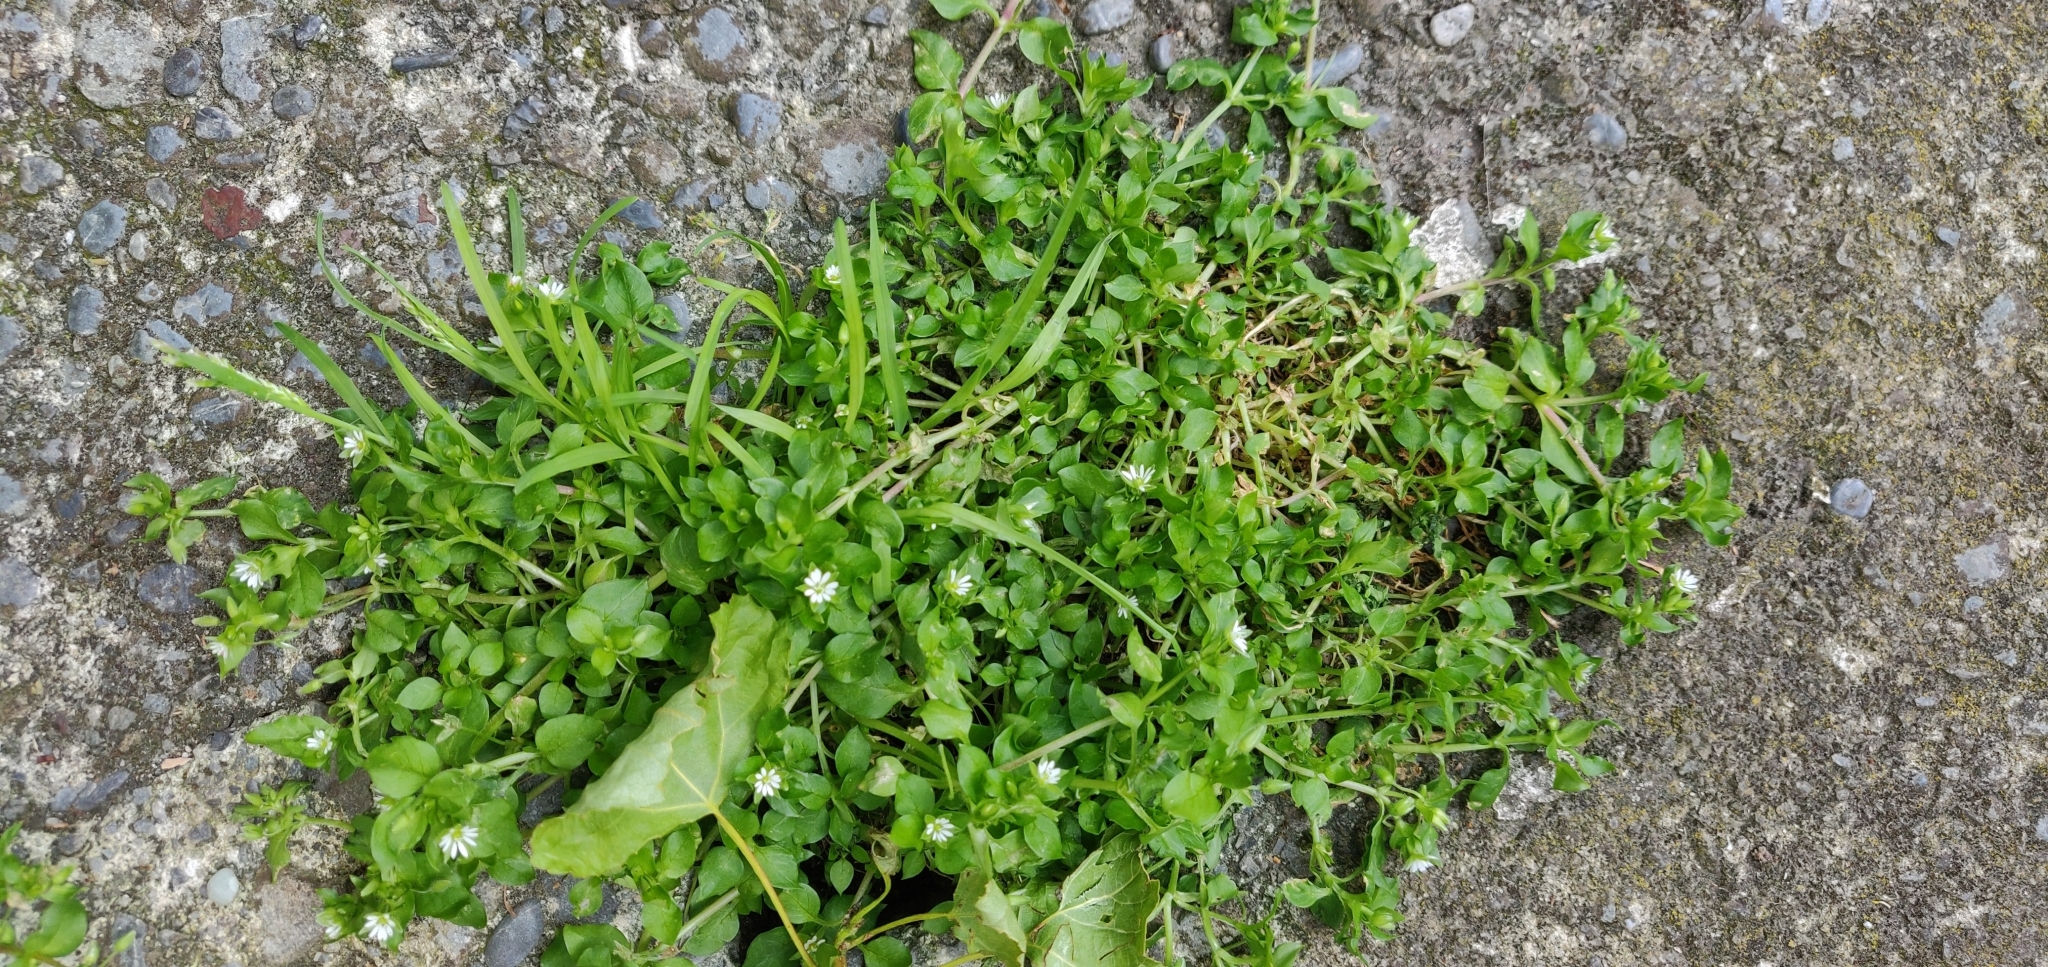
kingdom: Plantae
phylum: Tracheophyta
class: Magnoliopsida
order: Caryophyllales
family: Caryophyllaceae
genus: Stellaria
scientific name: Stellaria media
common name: Common chickweed
